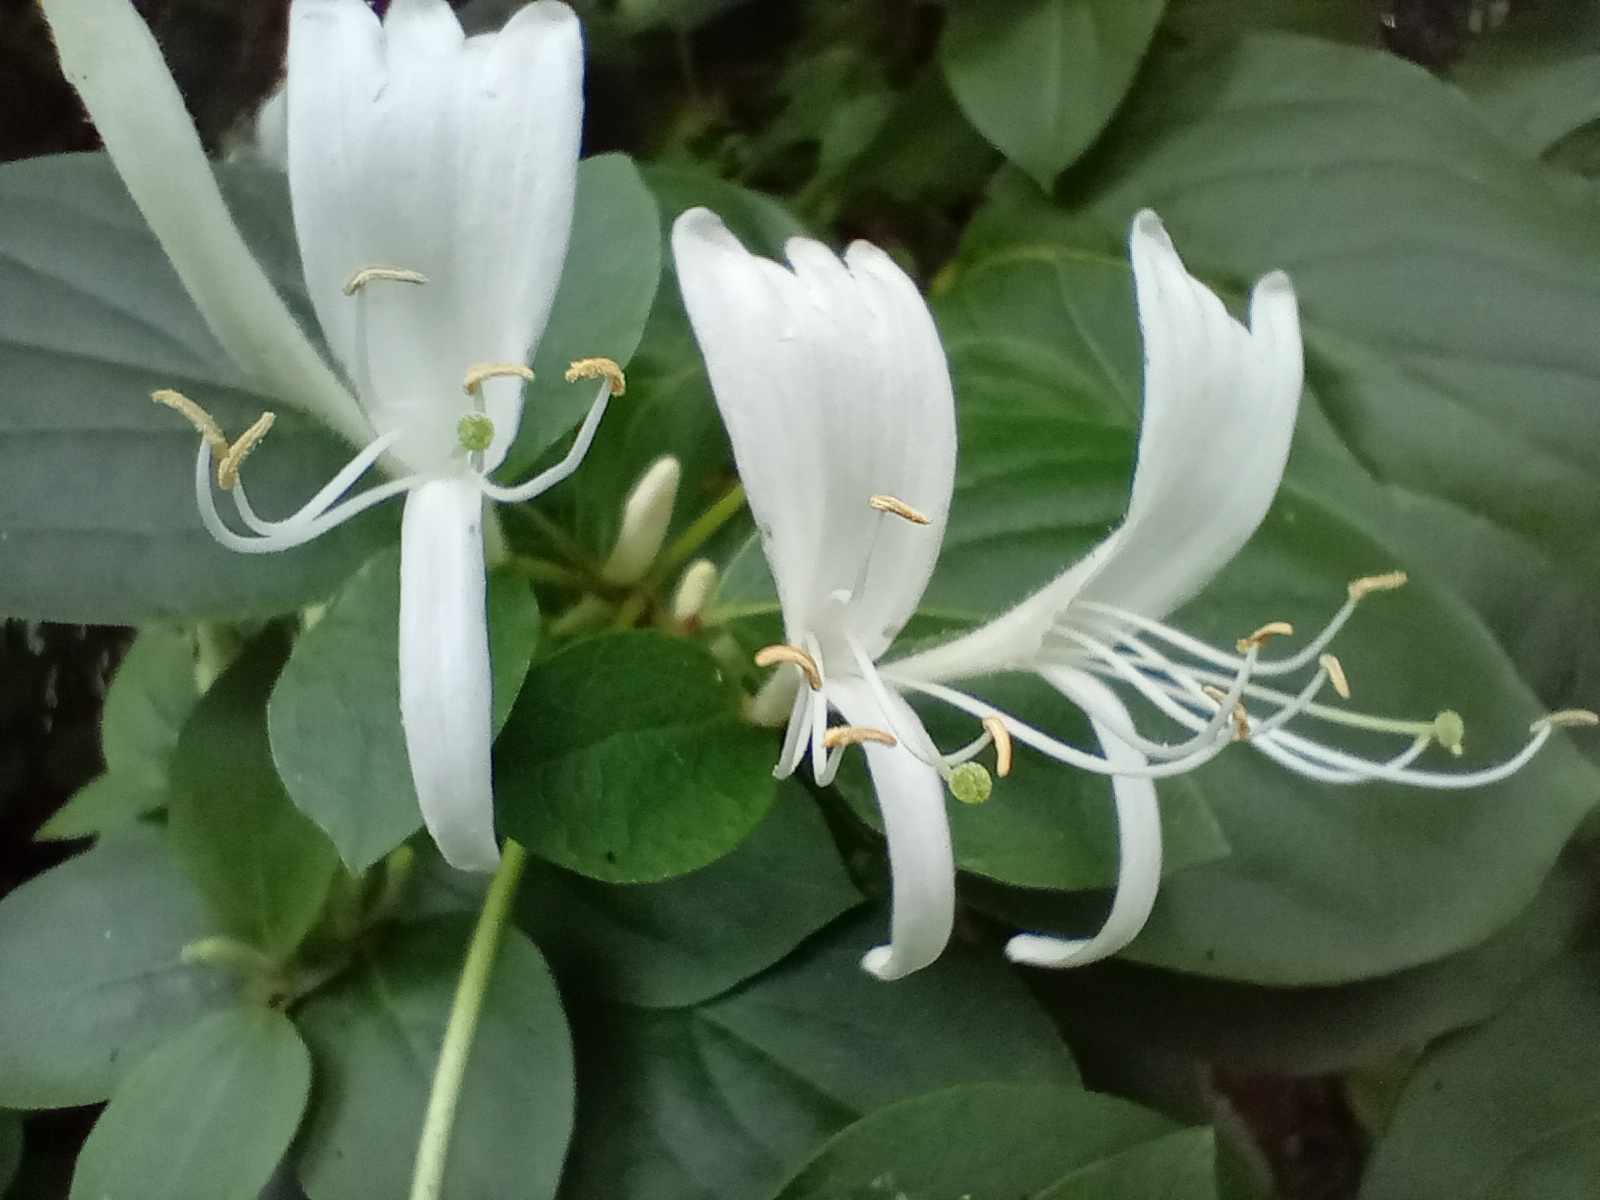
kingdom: Plantae
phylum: Tracheophyta
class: Magnoliopsida
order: Dipsacales
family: Caprifoliaceae
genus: Lonicera
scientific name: Lonicera japonica
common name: Japanese honeysuckle
